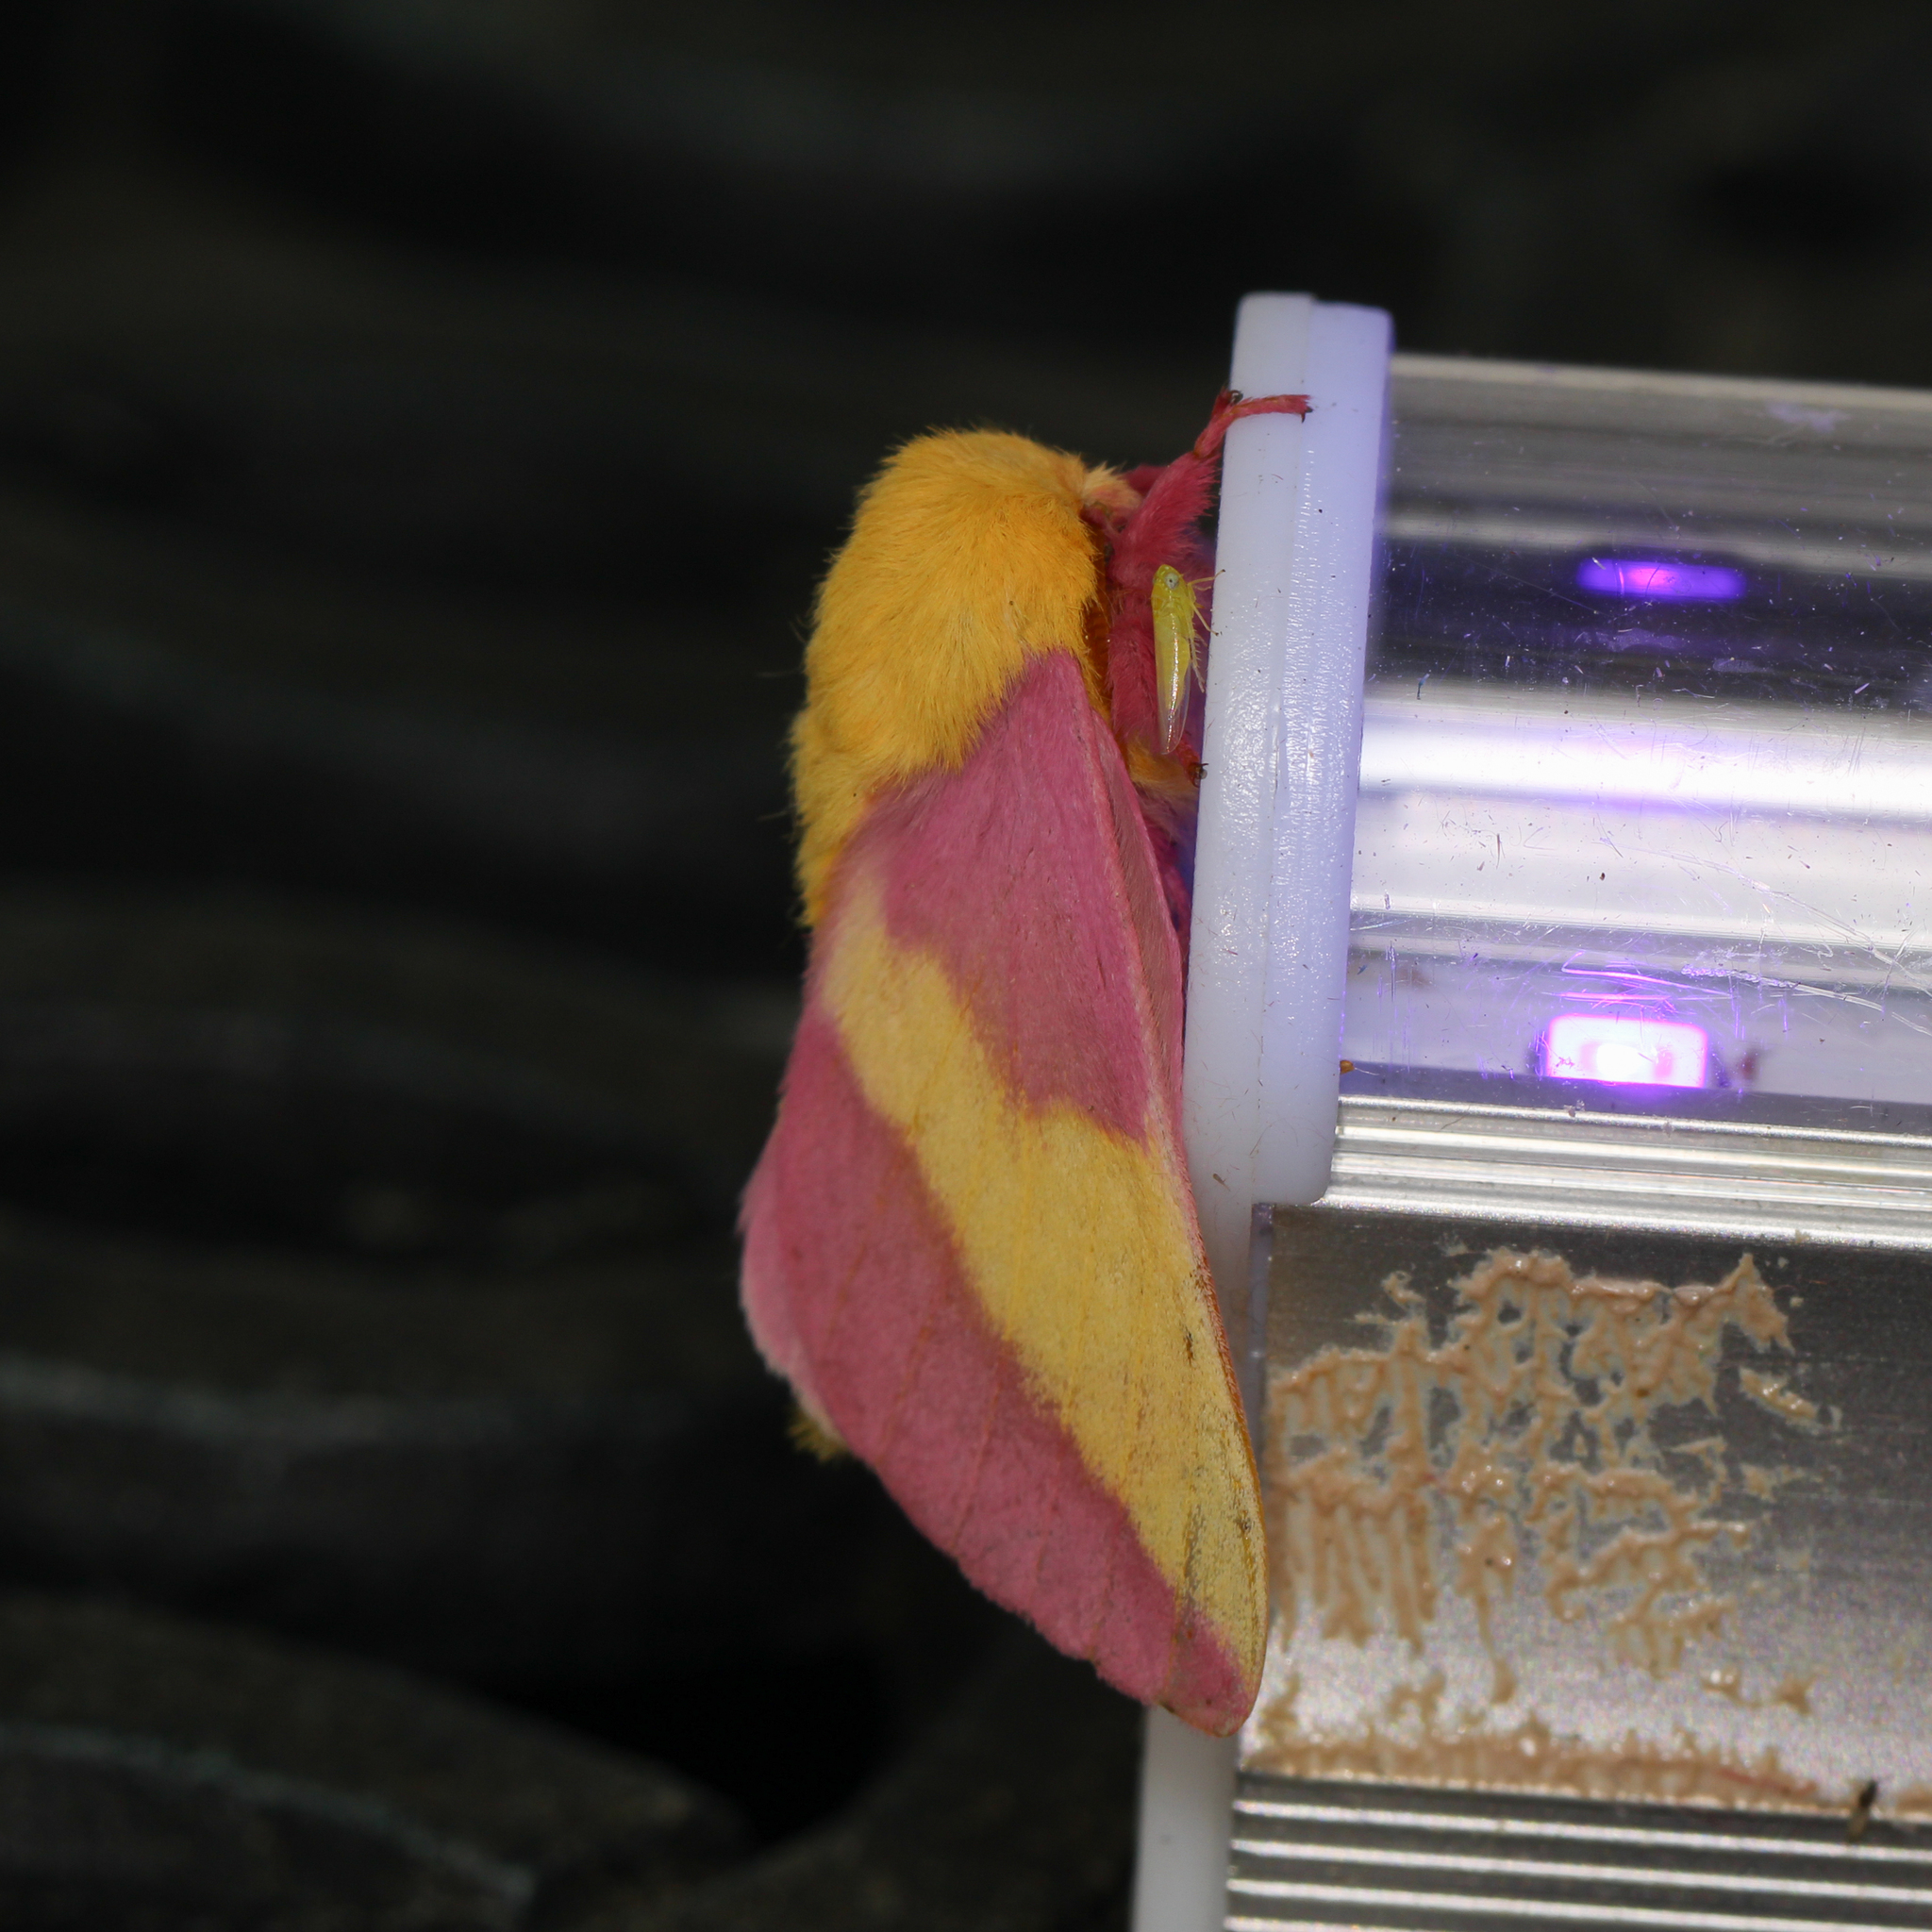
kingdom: Animalia
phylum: Arthropoda
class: Insecta
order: Lepidoptera
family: Saturniidae
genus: Dryocampa
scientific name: Dryocampa rubicunda
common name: Rosy maple moth
